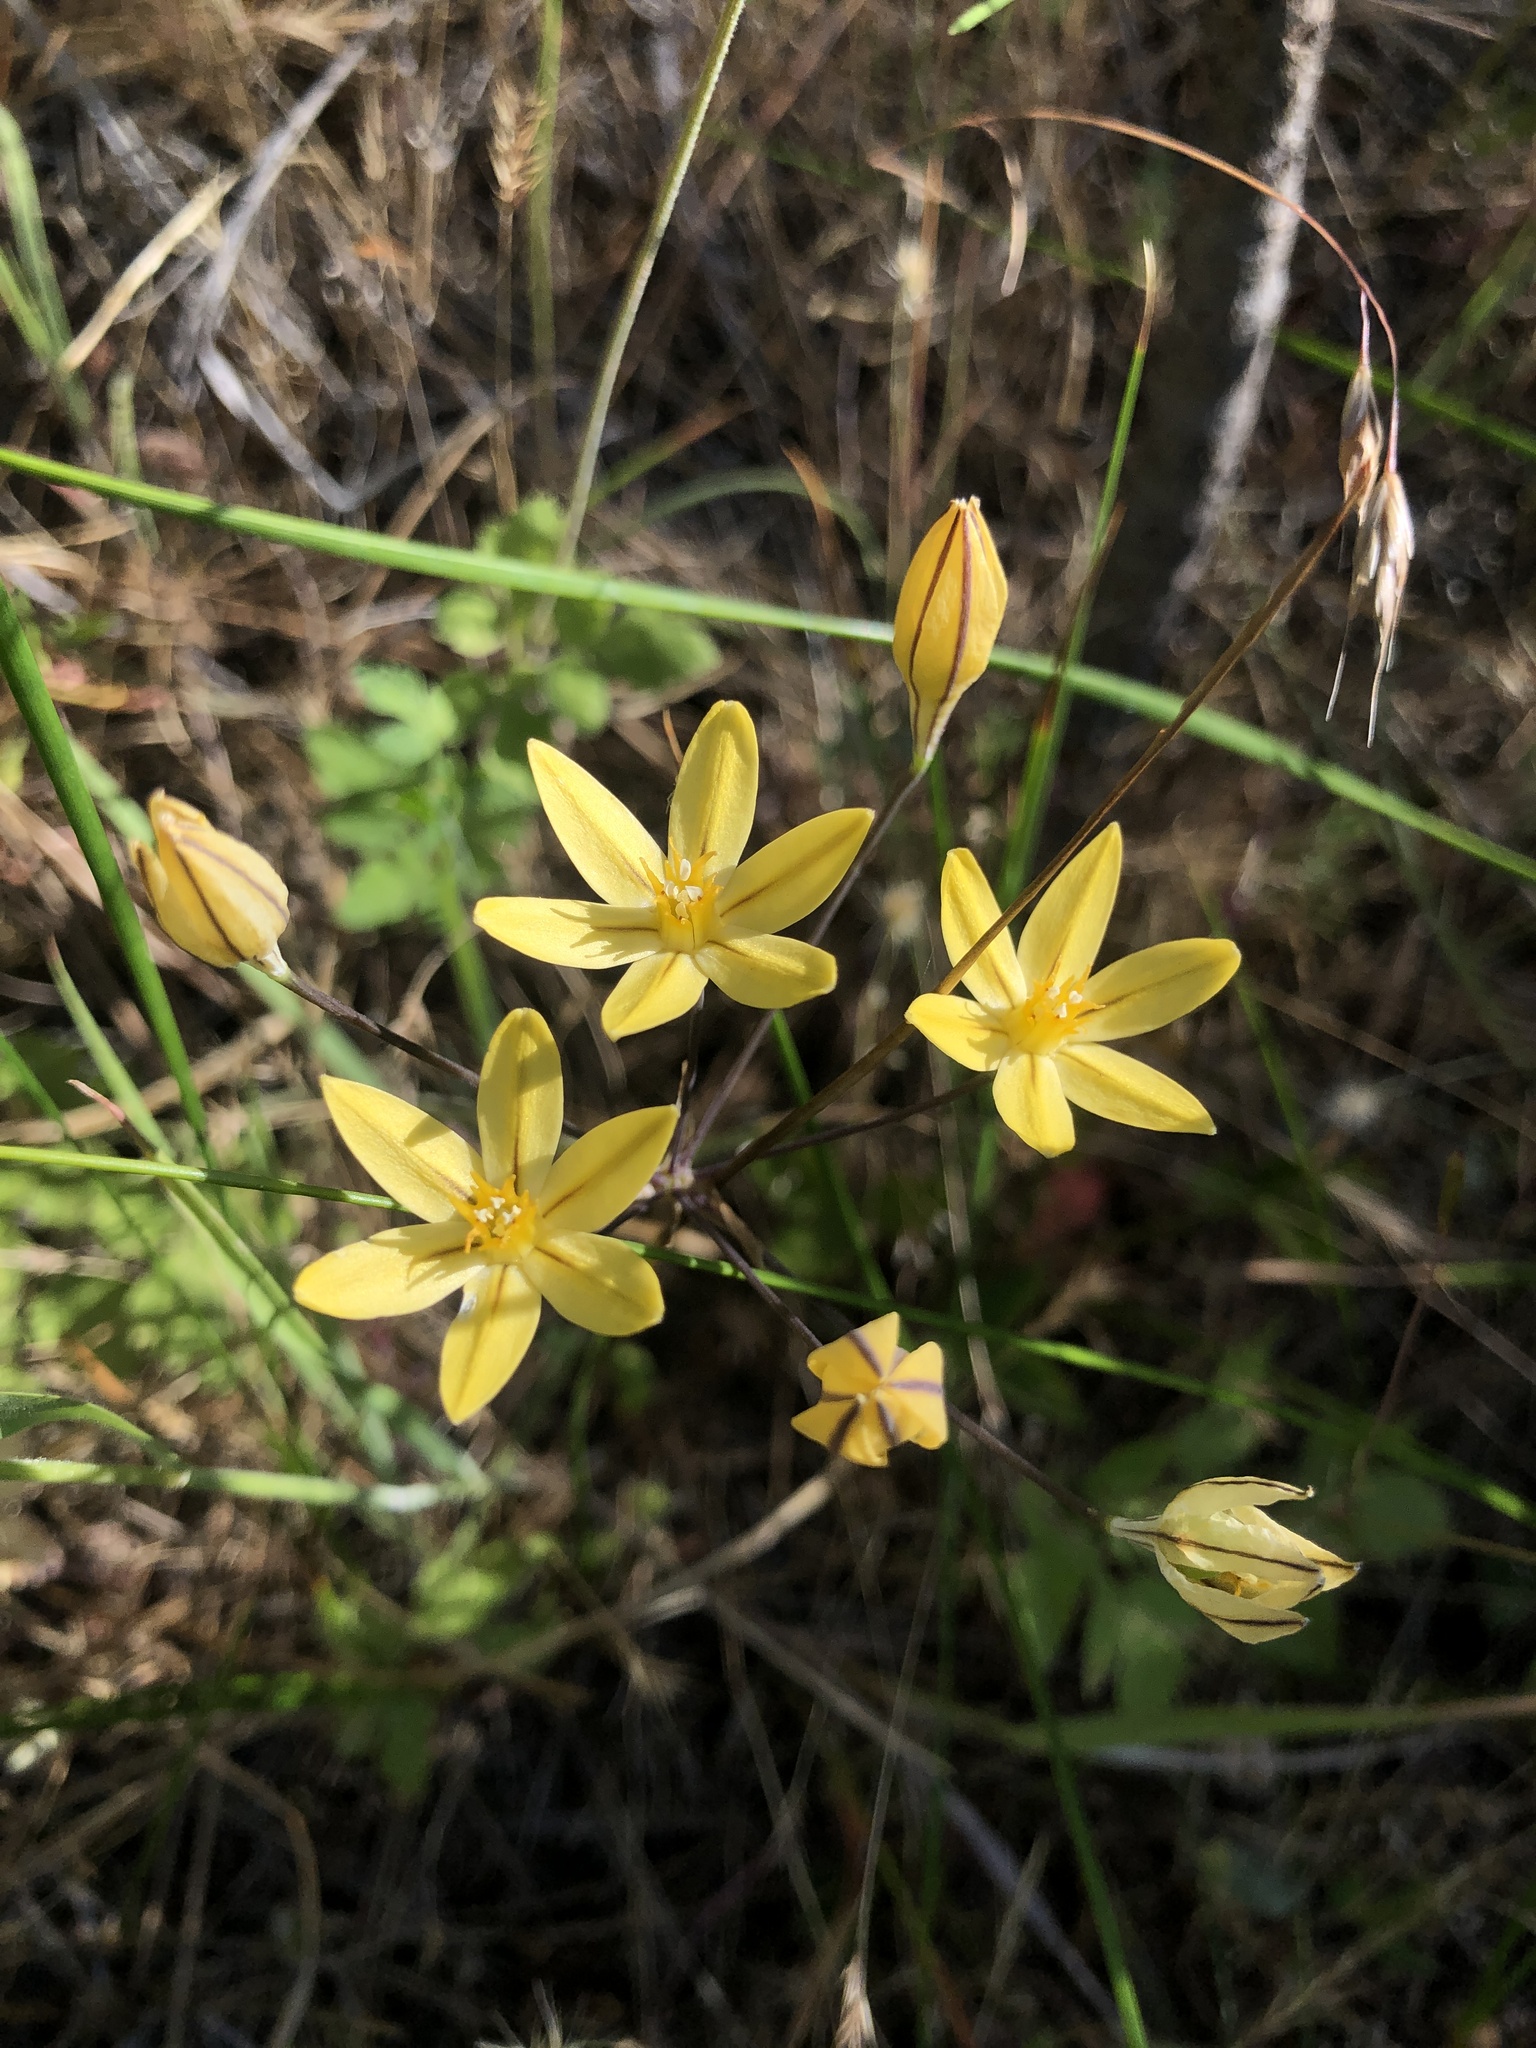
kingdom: Plantae
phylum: Tracheophyta
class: Liliopsida
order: Asparagales
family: Asparagaceae
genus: Triteleia
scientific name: Triteleia ixioides
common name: Yellow-brodiaea
